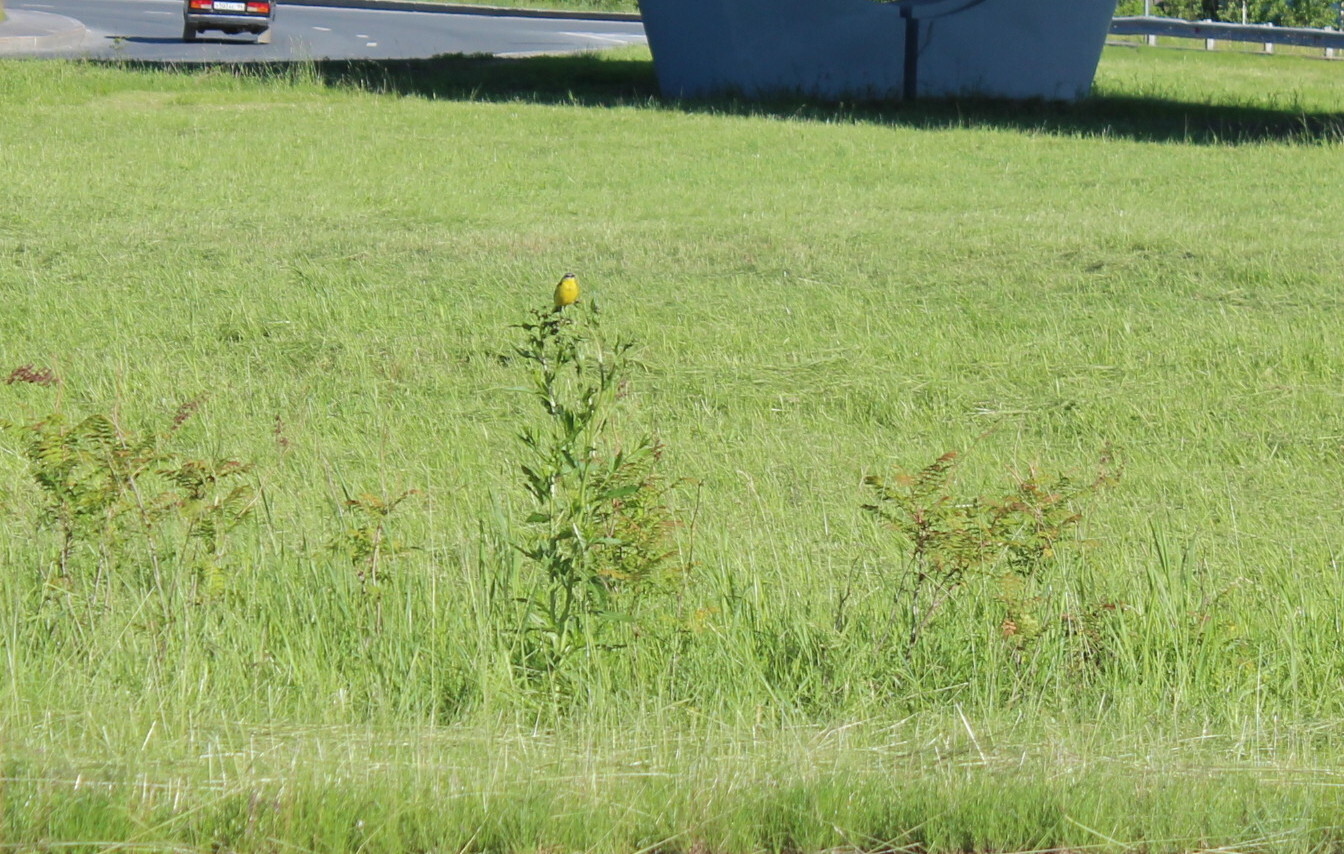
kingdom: Animalia
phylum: Chordata
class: Aves
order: Passeriformes
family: Motacillidae
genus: Motacilla
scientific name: Motacilla flava
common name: Western yellow wagtail
